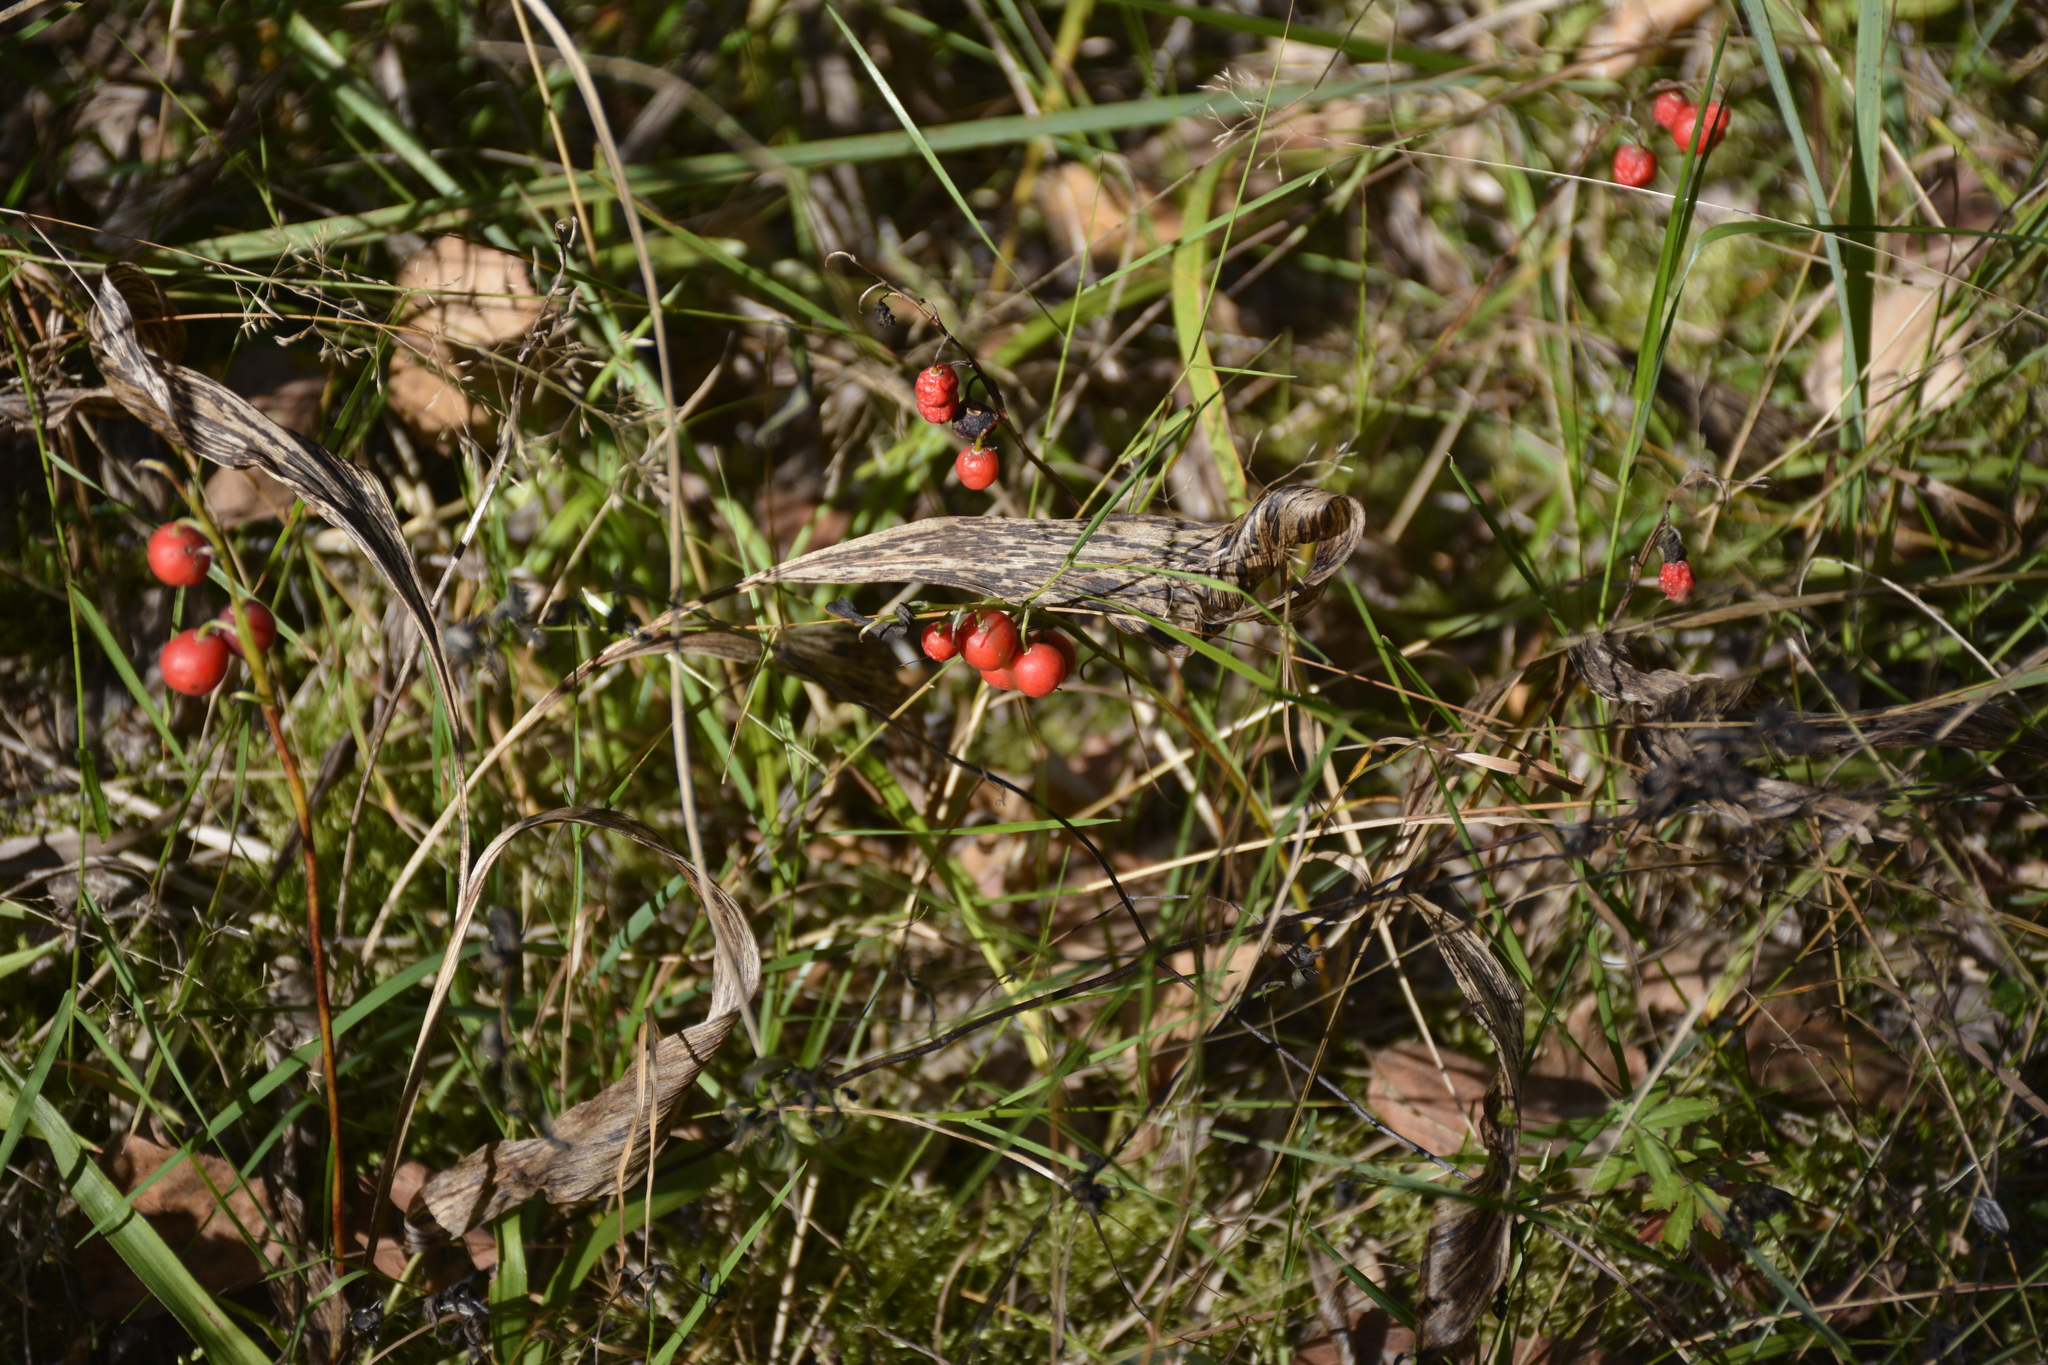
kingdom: Plantae
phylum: Tracheophyta
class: Liliopsida
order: Asparagales
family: Asparagaceae
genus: Convallaria
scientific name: Convallaria majalis
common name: Lily-of-the-valley
